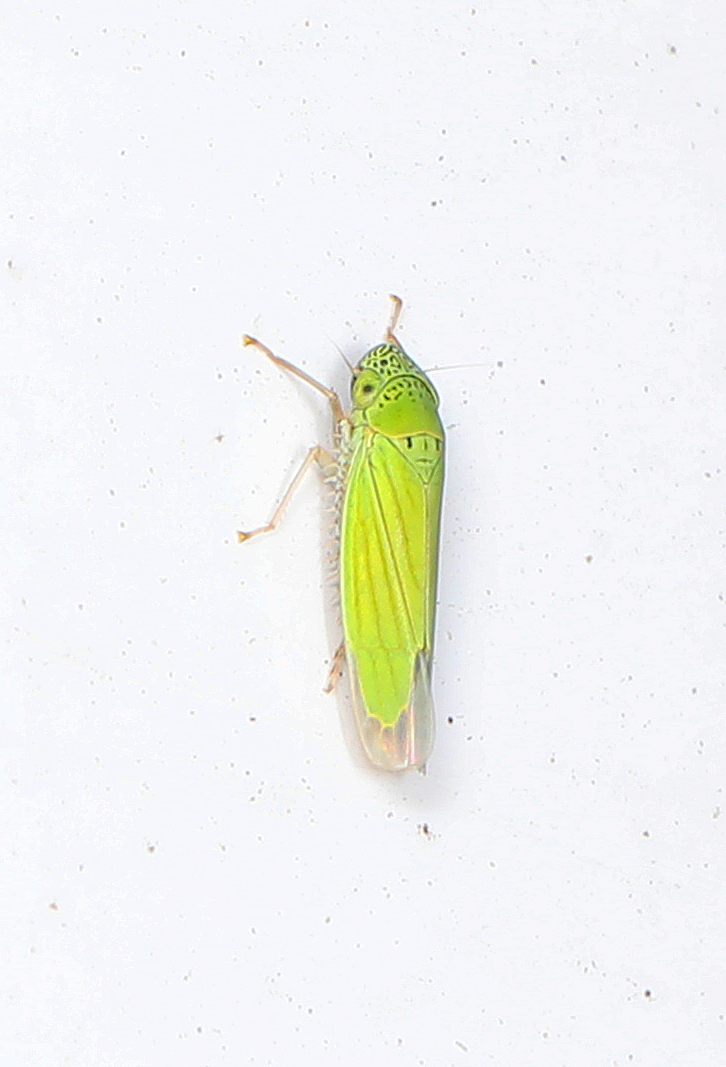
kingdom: Animalia
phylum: Arthropoda
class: Insecta
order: Hemiptera
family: Cicadellidae
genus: Hortensia
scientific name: Hortensia similis
